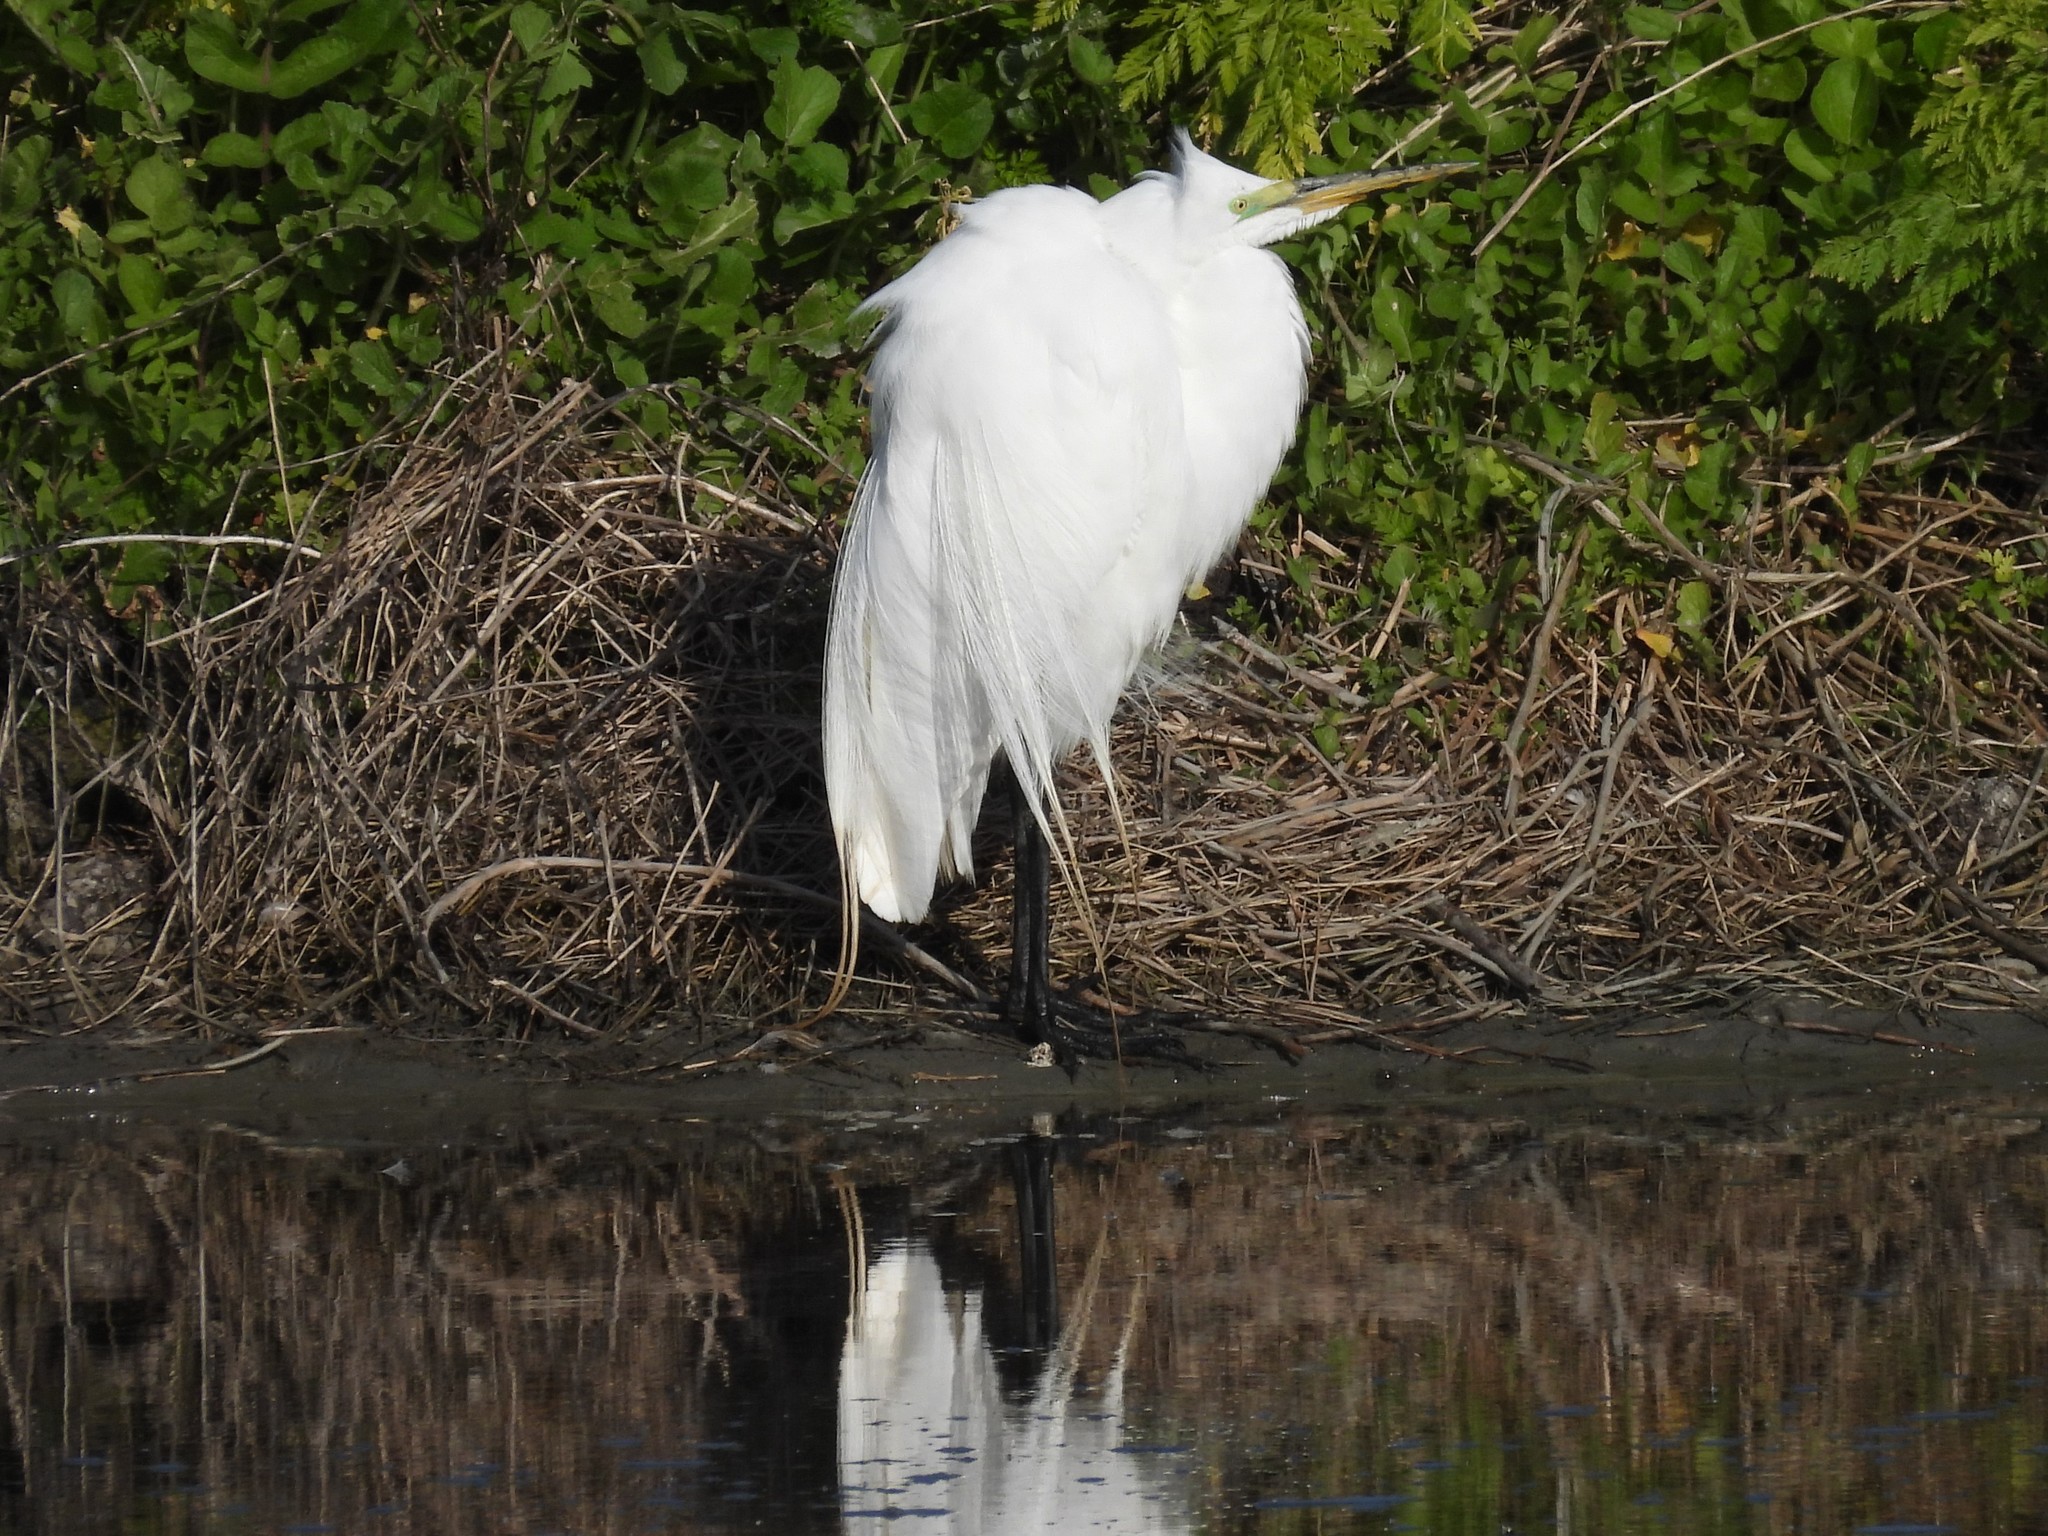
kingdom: Animalia
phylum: Chordata
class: Aves
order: Pelecaniformes
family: Ardeidae
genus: Ardea
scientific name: Ardea alba
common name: Great egret
